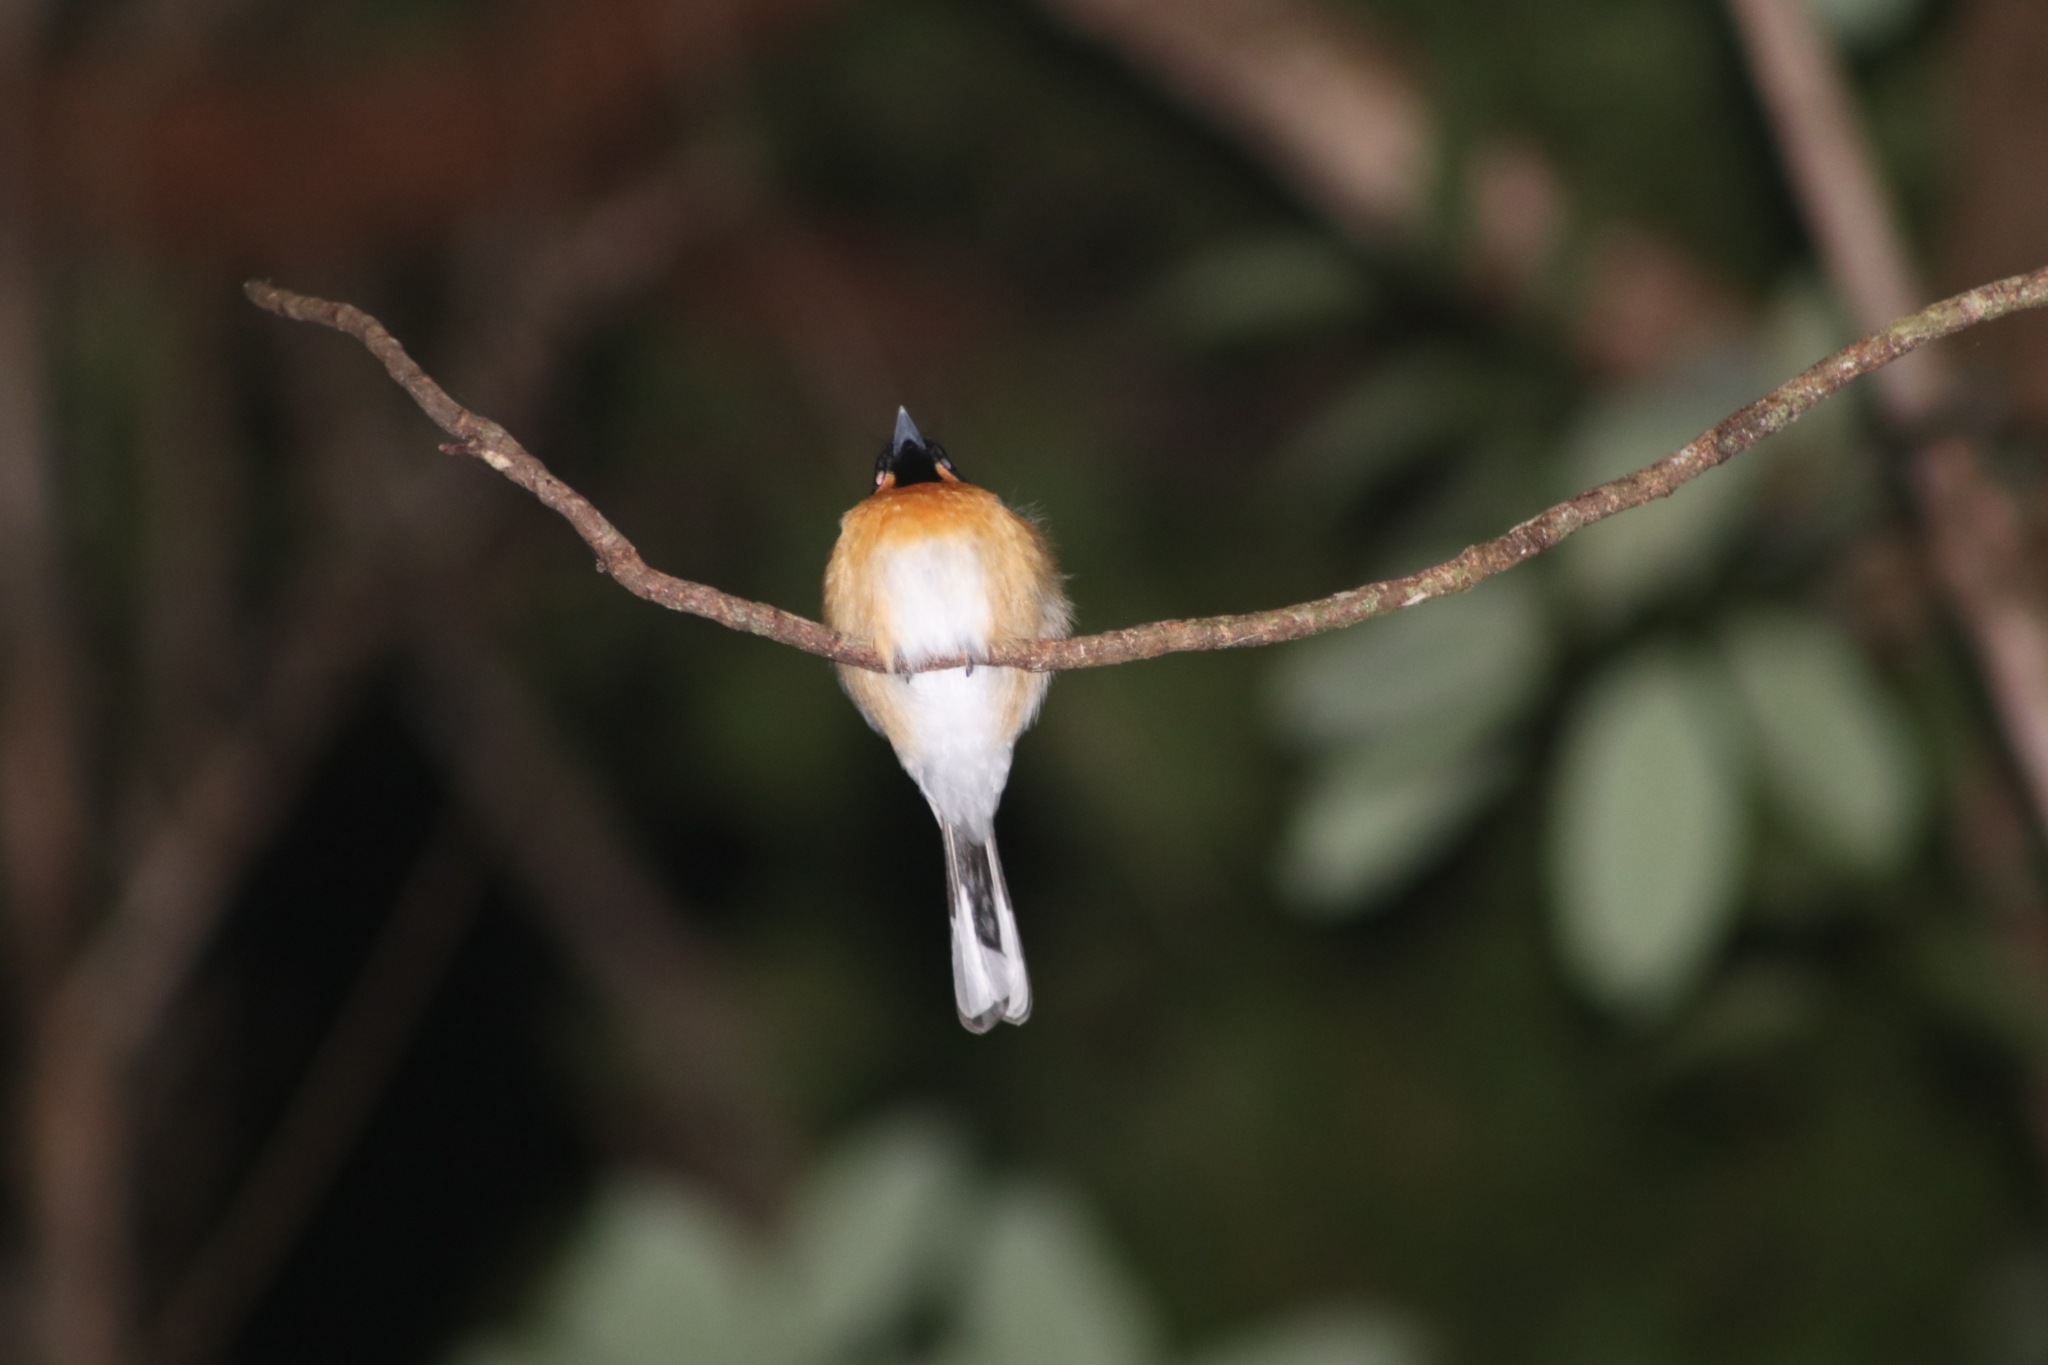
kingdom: Animalia
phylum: Chordata
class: Aves
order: Passeriformes
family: Monarchidae
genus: Symposiachrus
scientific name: Symposiachrus trivirgatus
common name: Spectacled monarch
